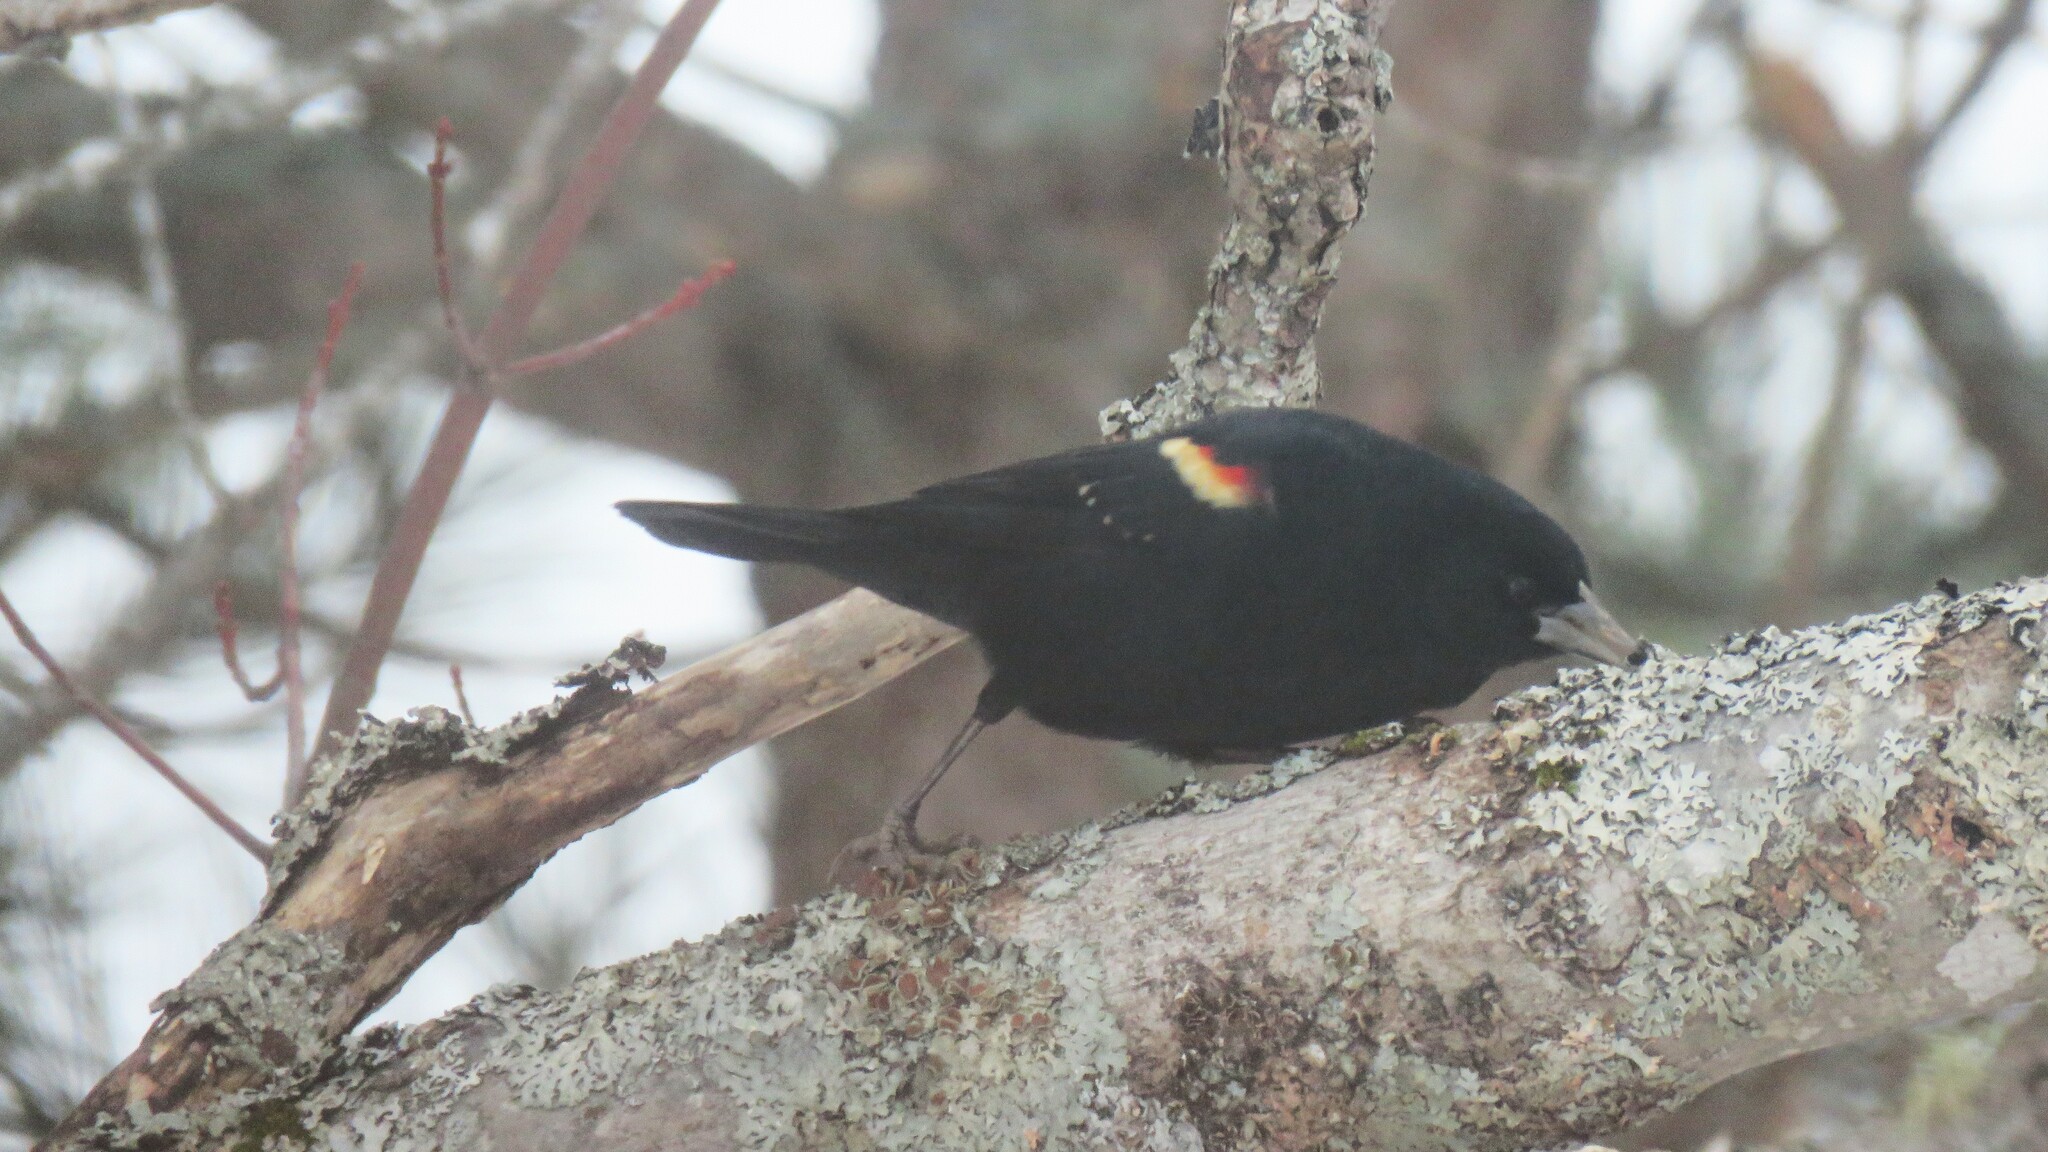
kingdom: Animalia
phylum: Chordata
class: Aves
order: Passeriformes
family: Icteridae
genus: Agelaius
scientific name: Agelaius phoeniceus
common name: Red-winged blackbird
